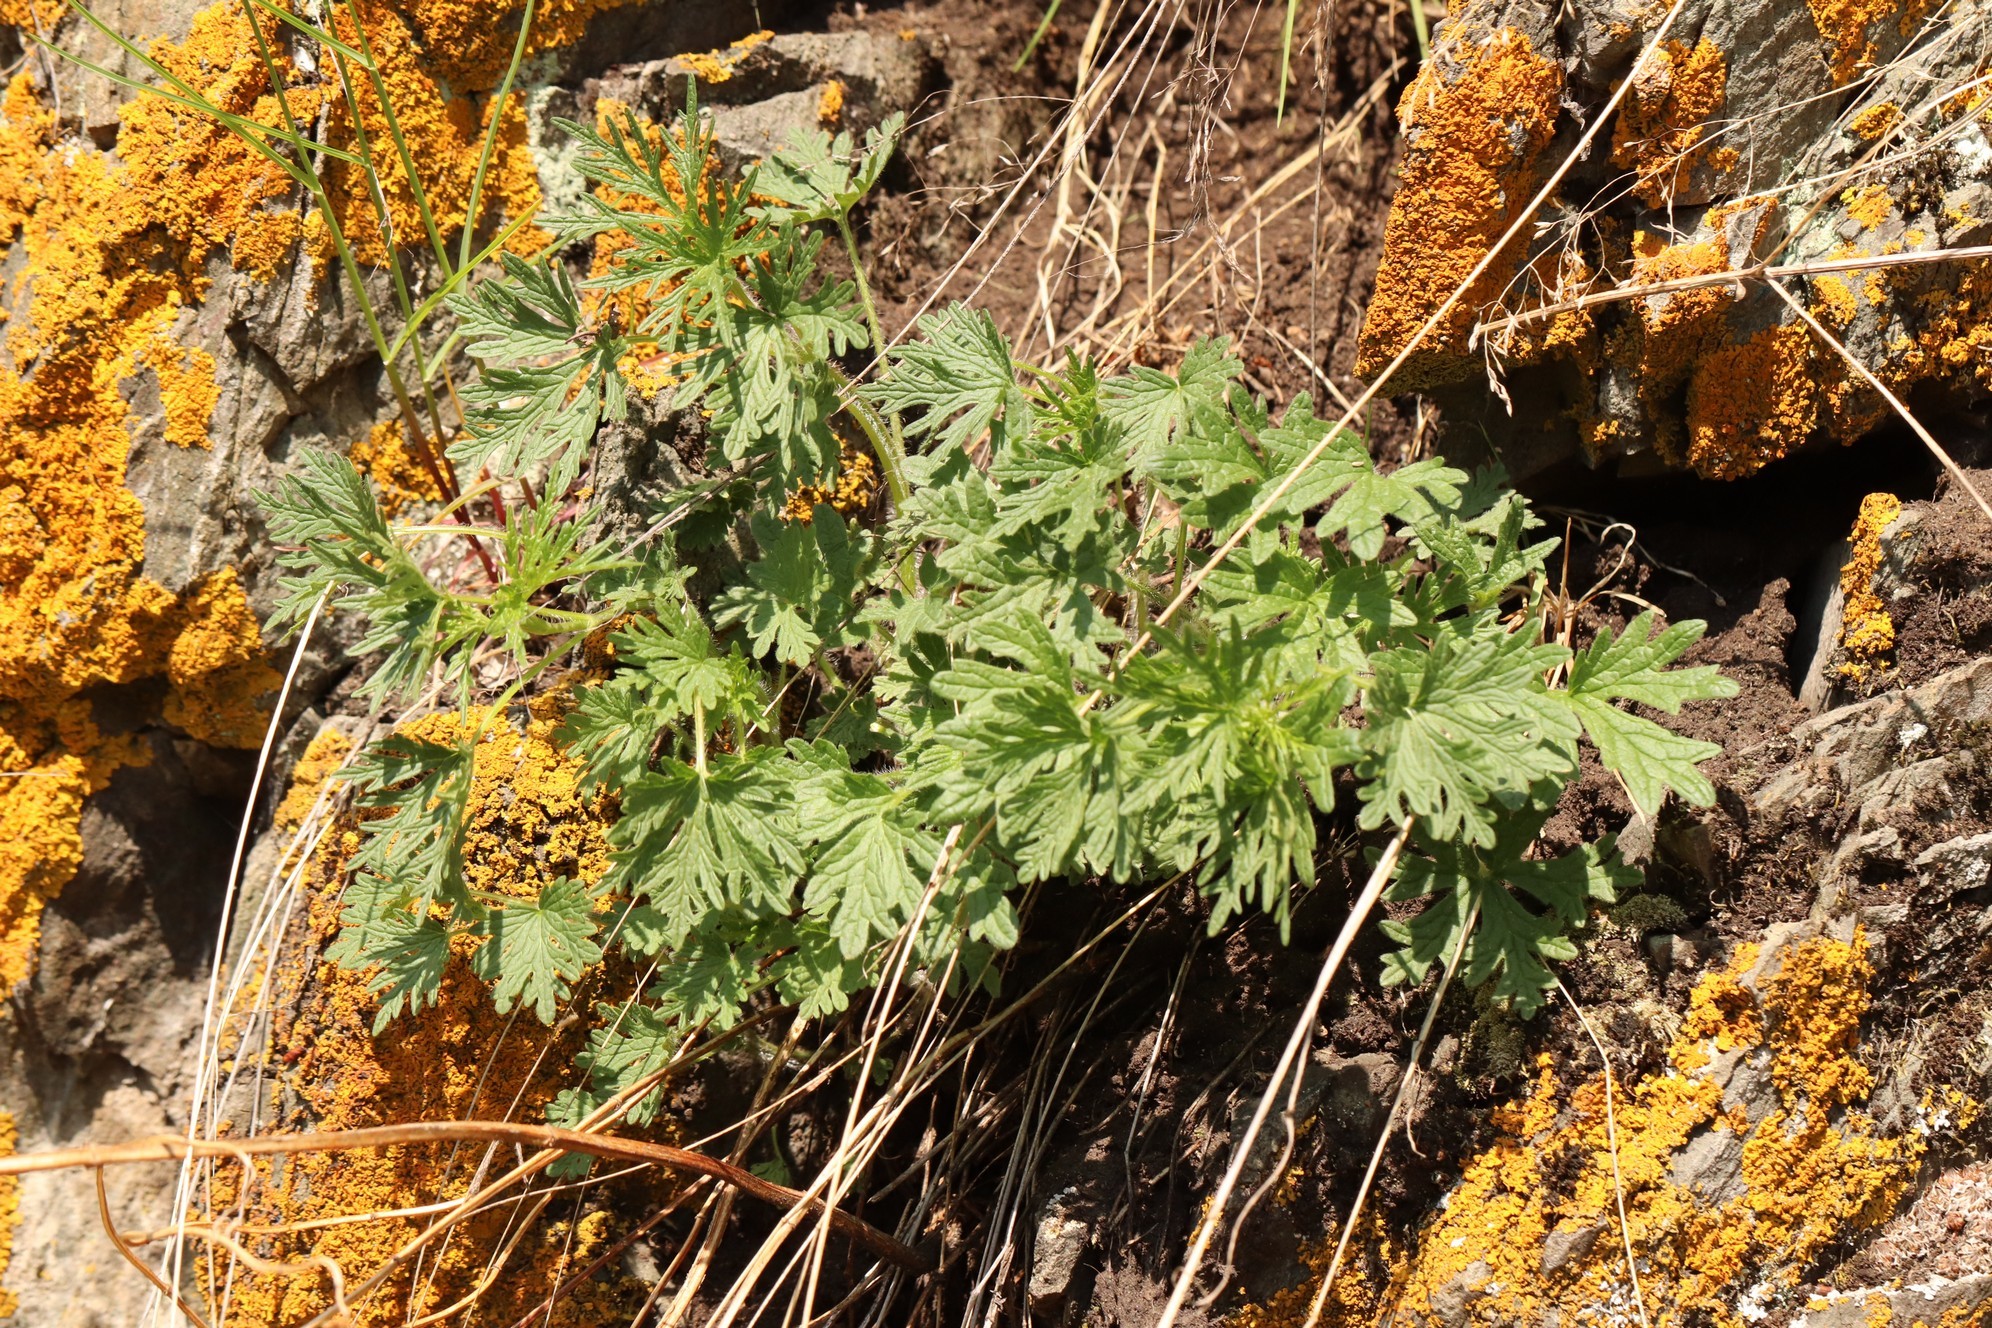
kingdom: Plantae
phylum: Tracheophyta
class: Magnoliopsida
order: Lamiales
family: Lamiaceae
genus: Leonurus
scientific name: Leonurus tataricus
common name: Chinese motherwort
